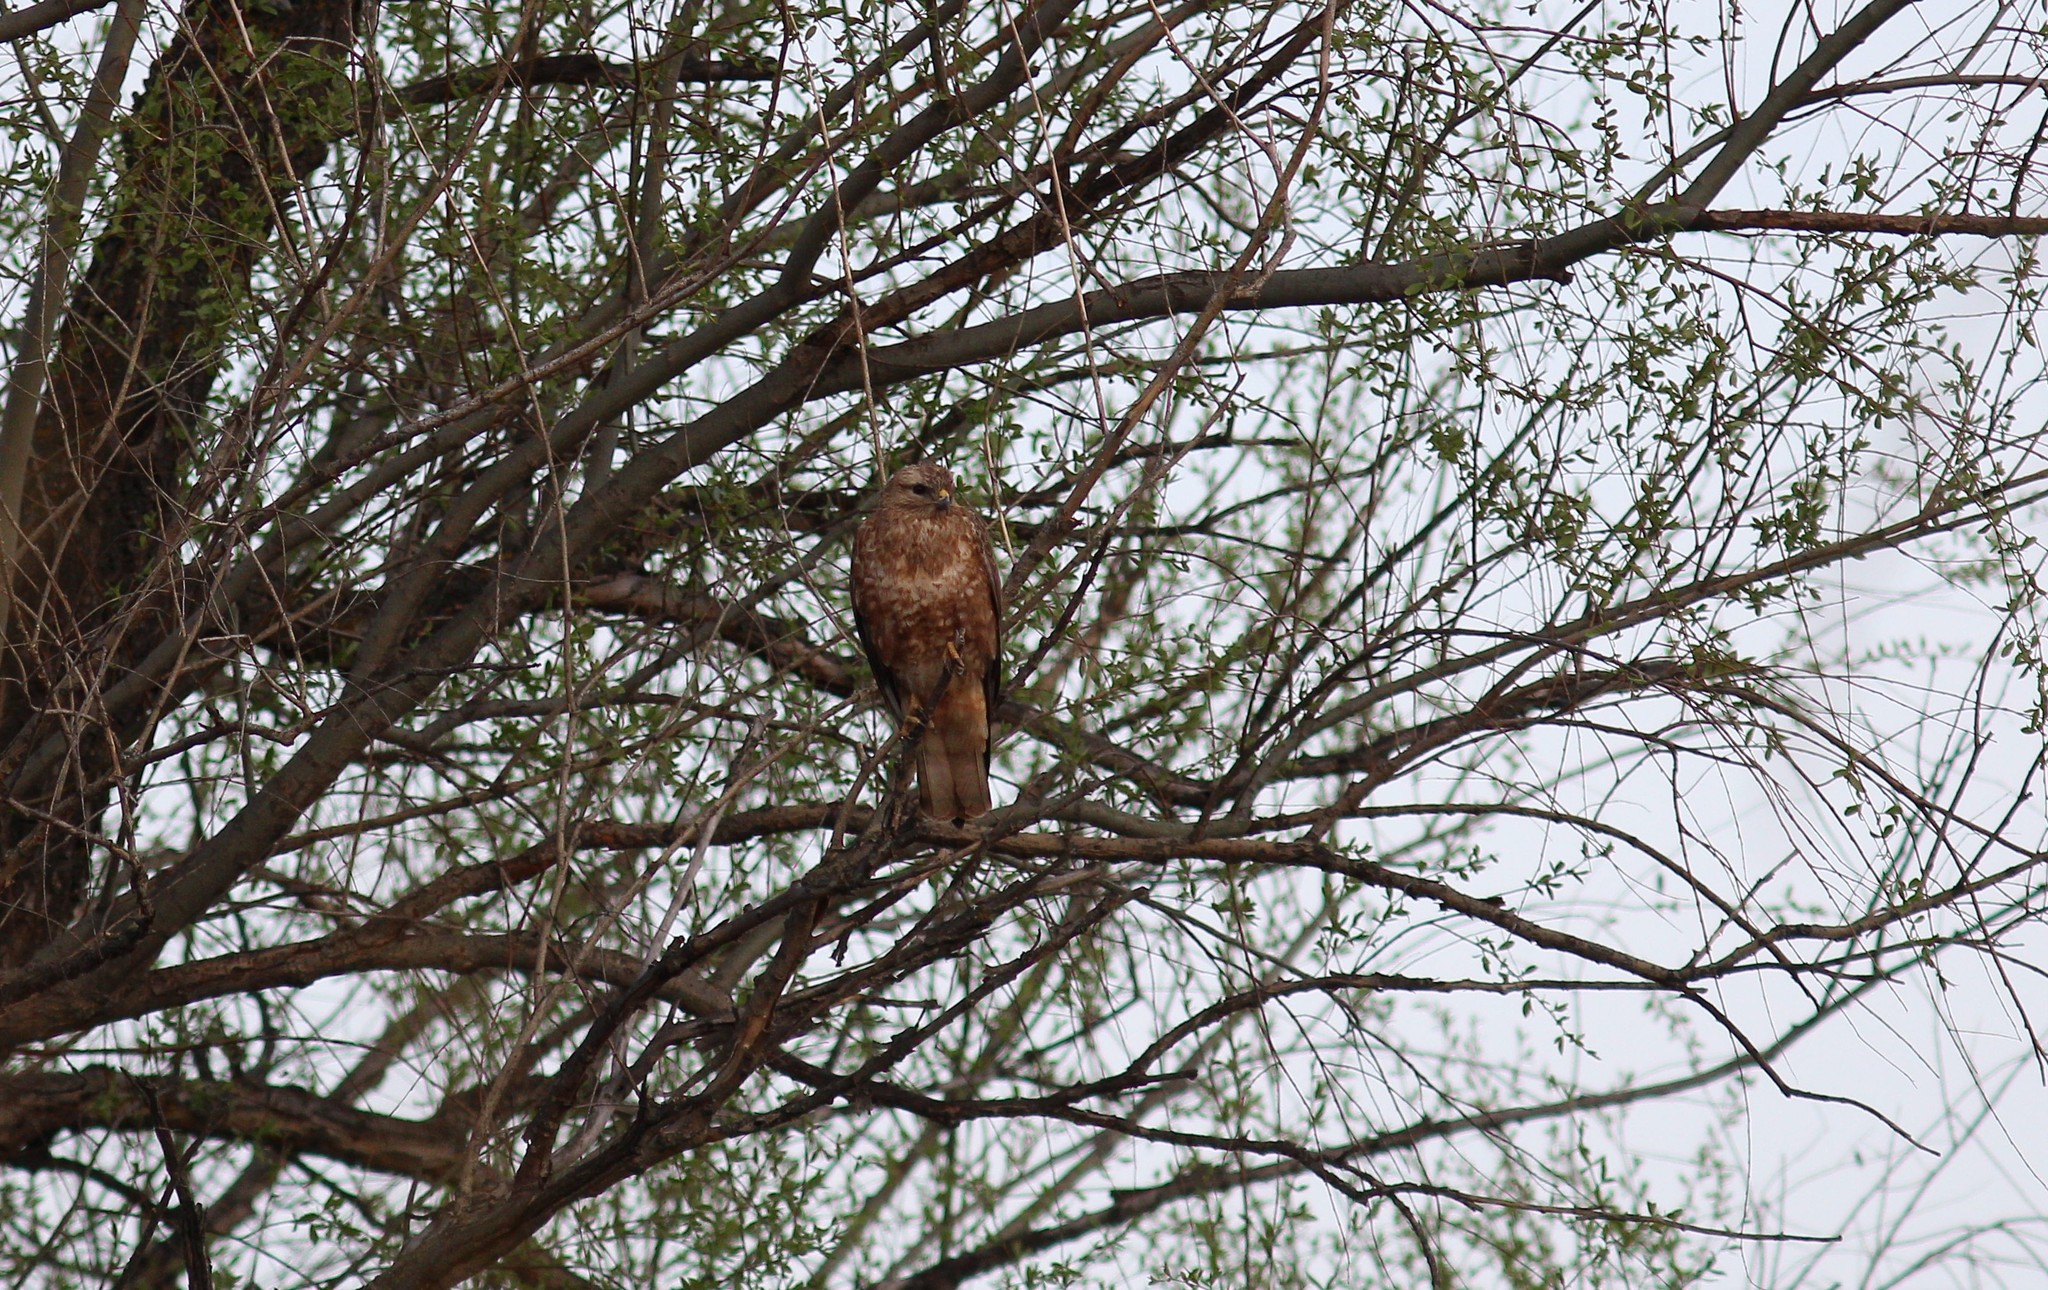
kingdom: Animalia
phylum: Chordata
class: Aves
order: Accipitriformes
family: Accipitridae
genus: Buteo
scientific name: Buteo buteo
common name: Common buzzard
